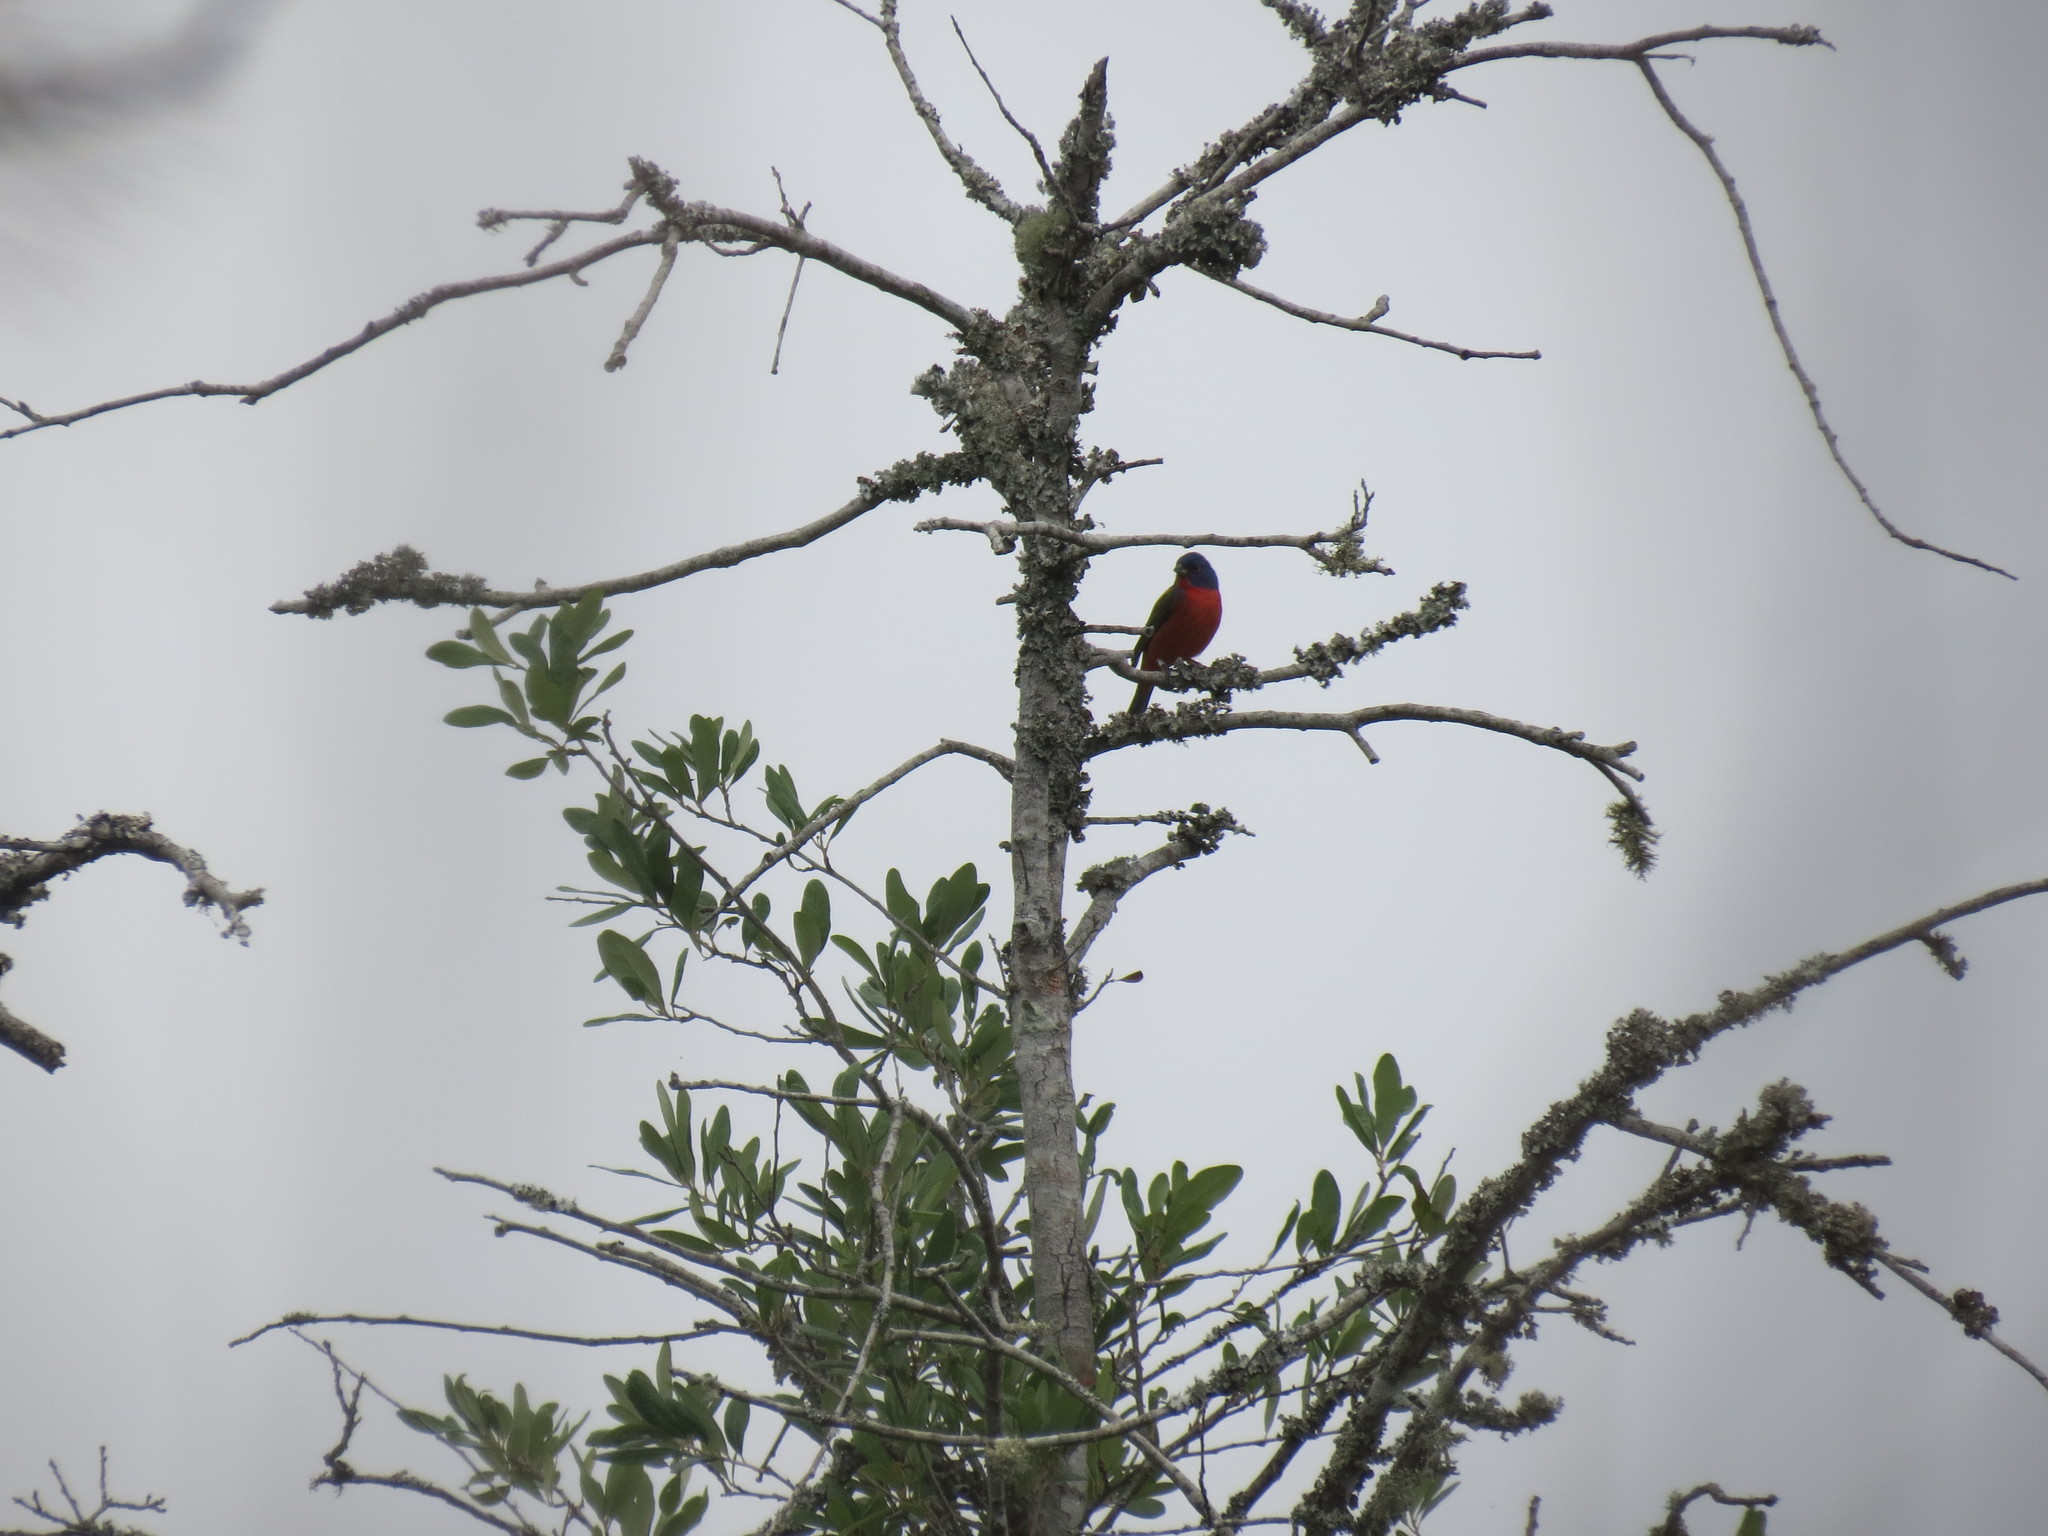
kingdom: Animalia
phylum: Chordata
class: Aves
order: Passeriformes
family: Cardinalidae
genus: Passerina
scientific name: Passerina ciris
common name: Painted bunting
